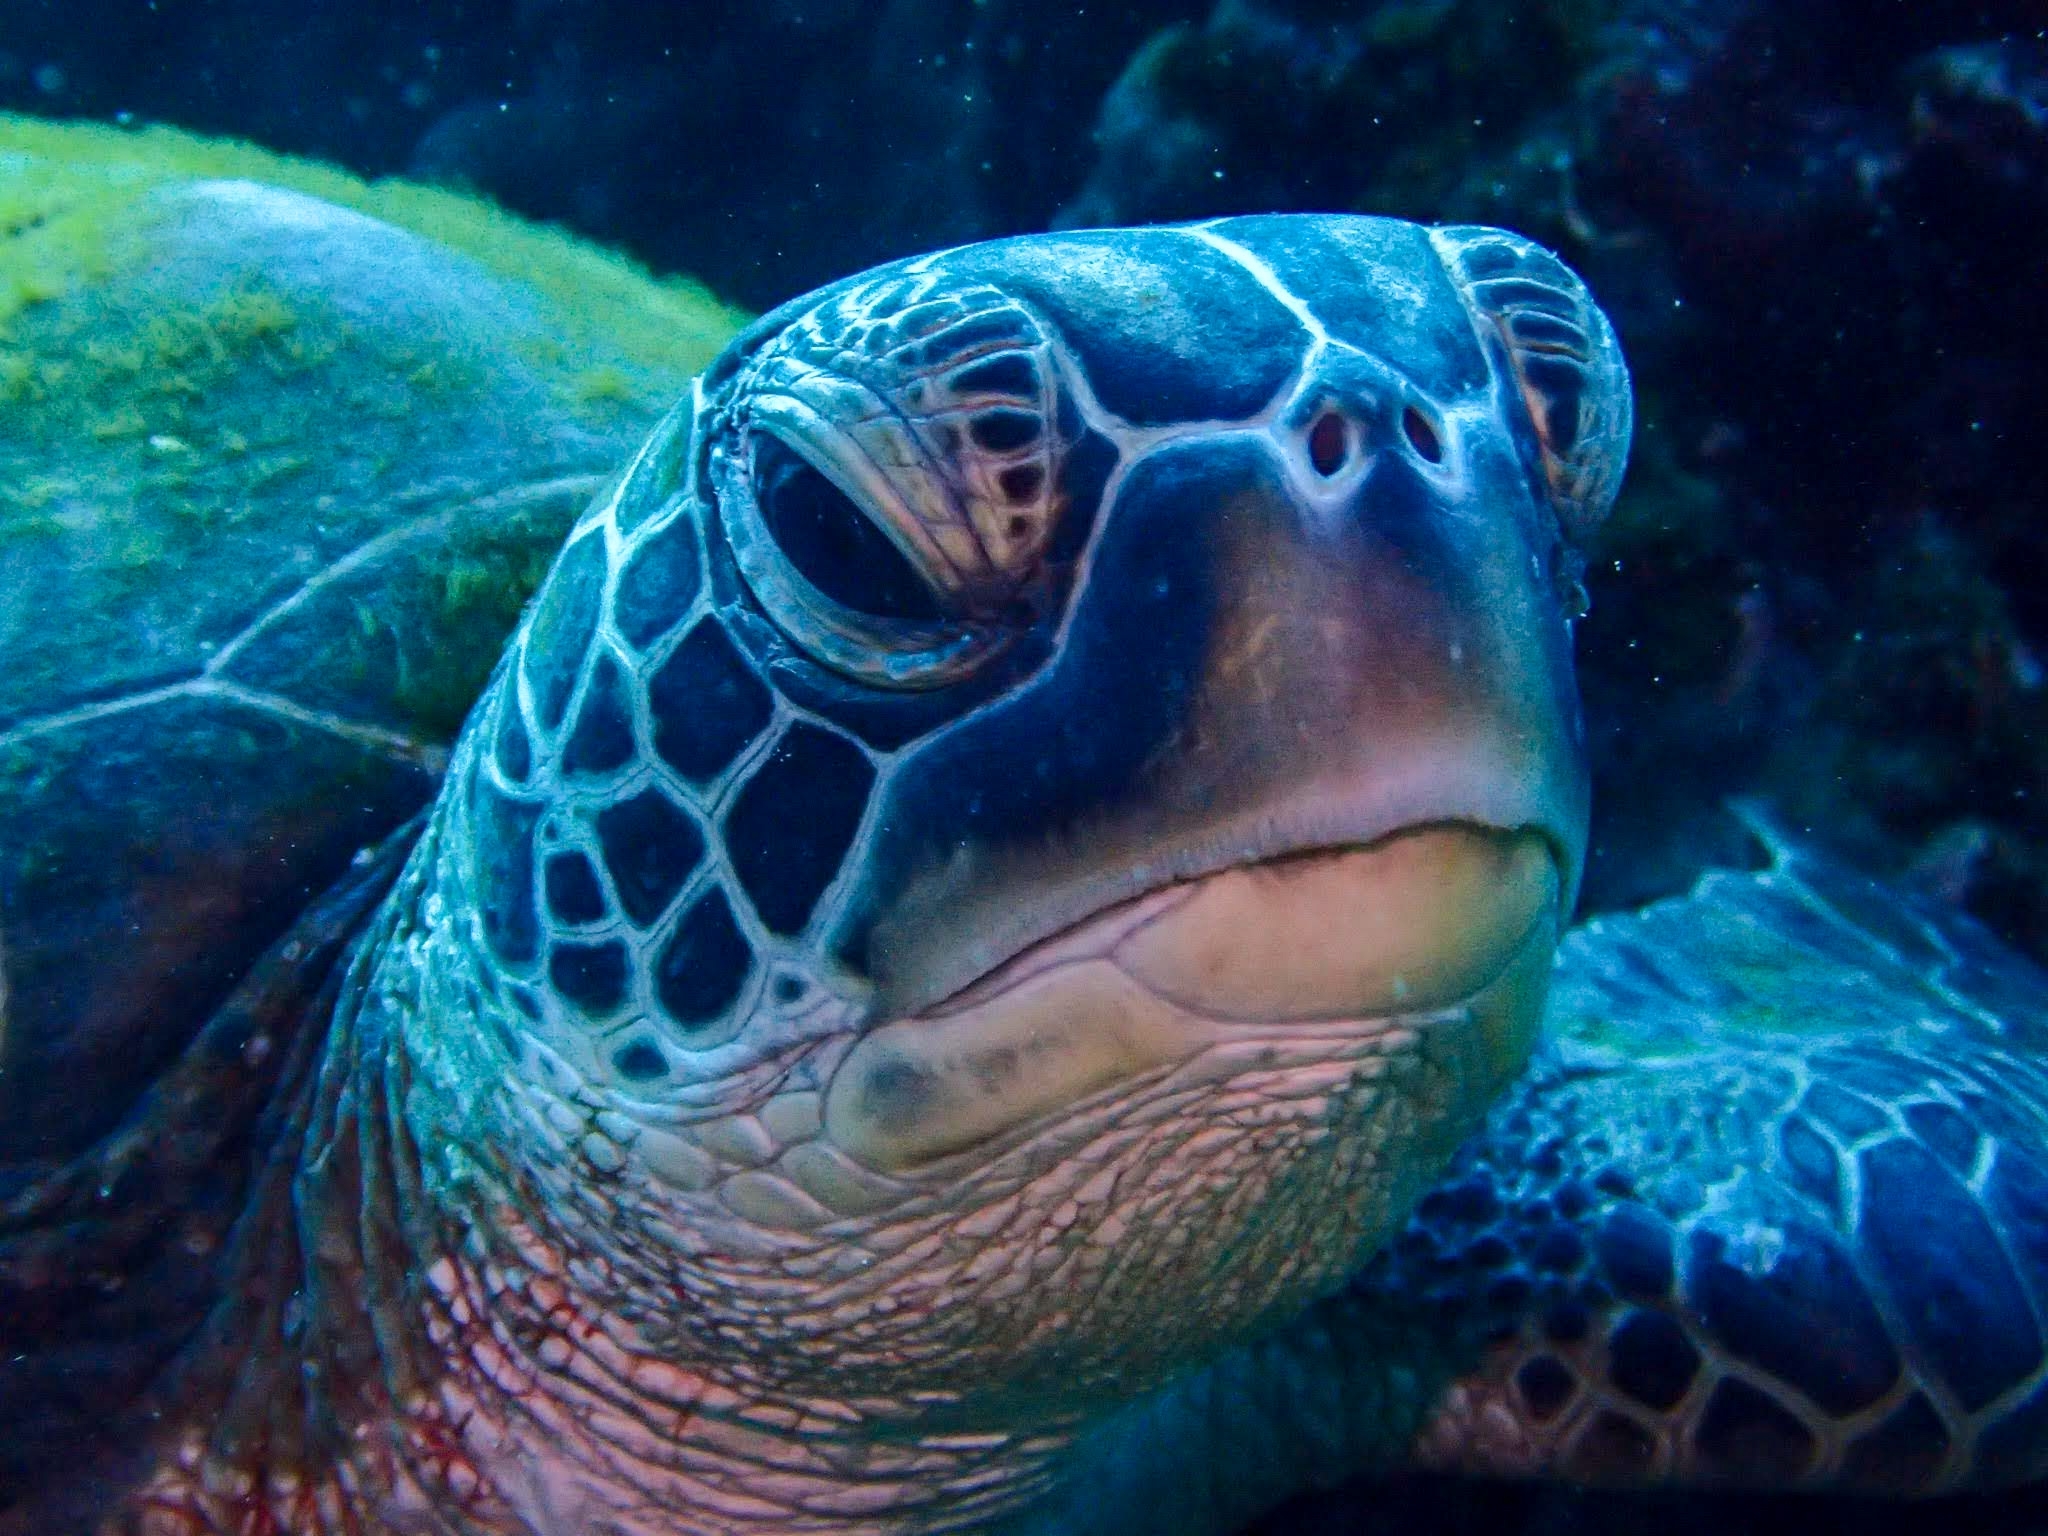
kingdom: Animalia
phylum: Chordata
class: Testudines
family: Cheloniidae
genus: Chelonia
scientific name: Chelonia mydas
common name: Green turtle
